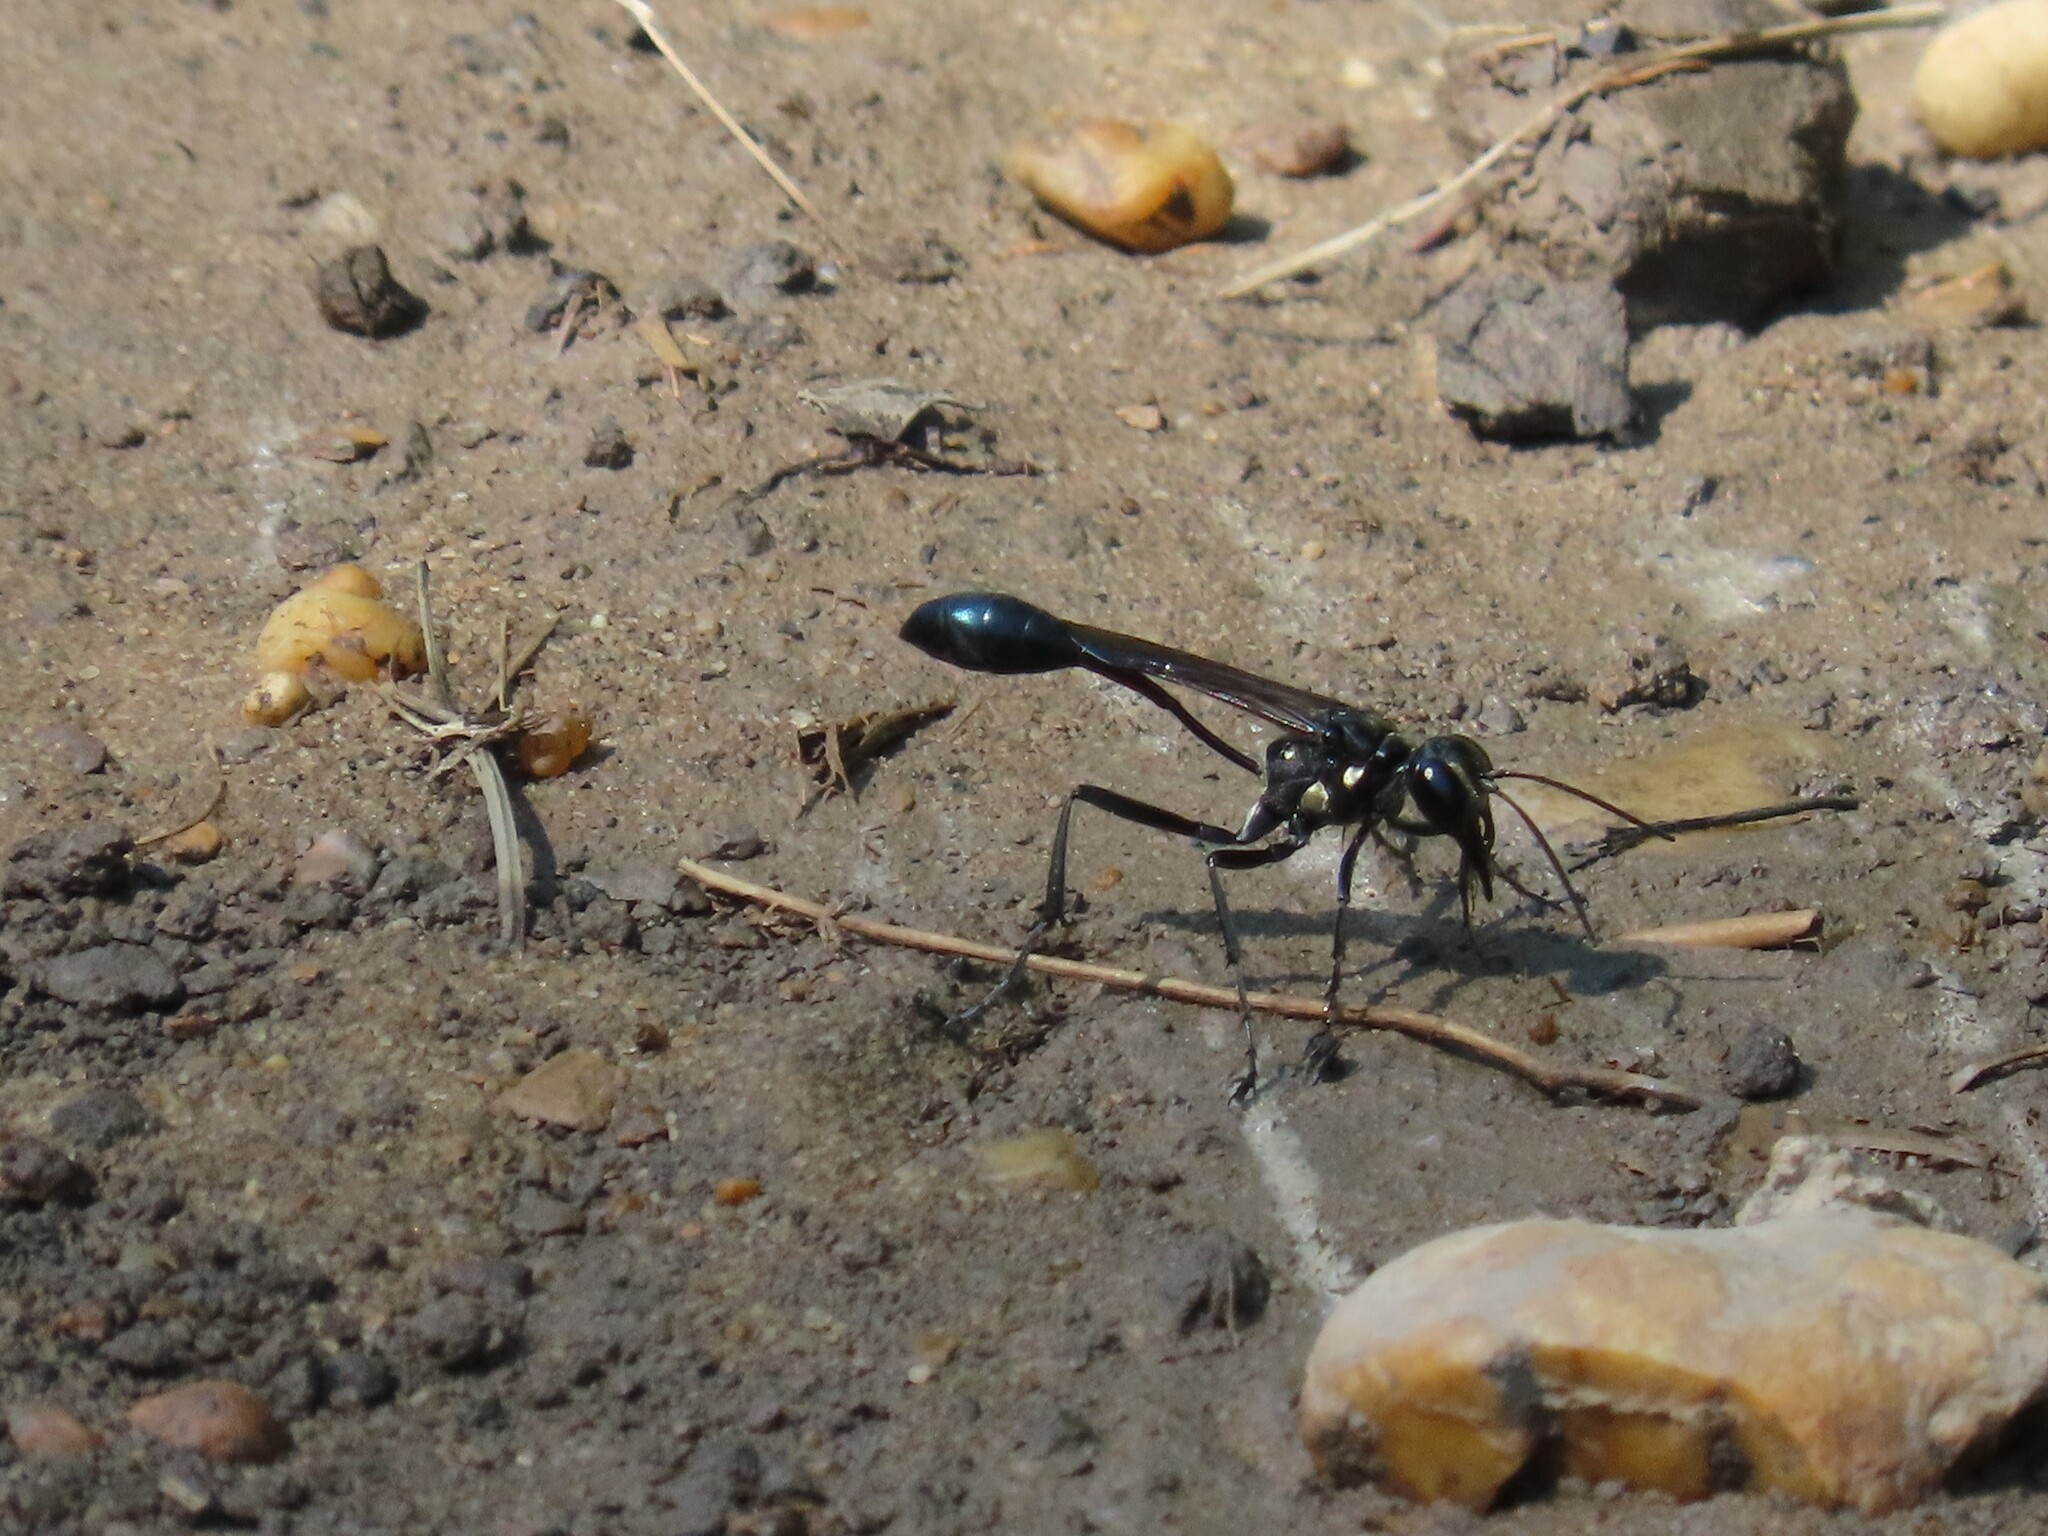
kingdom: Animalia
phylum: Arthropoda
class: Insecta
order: Hymenoptera
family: Sphecidae
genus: Eremnophila
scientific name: Eremnophila aureonotata
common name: Gold-marked thread-waisted wasp
